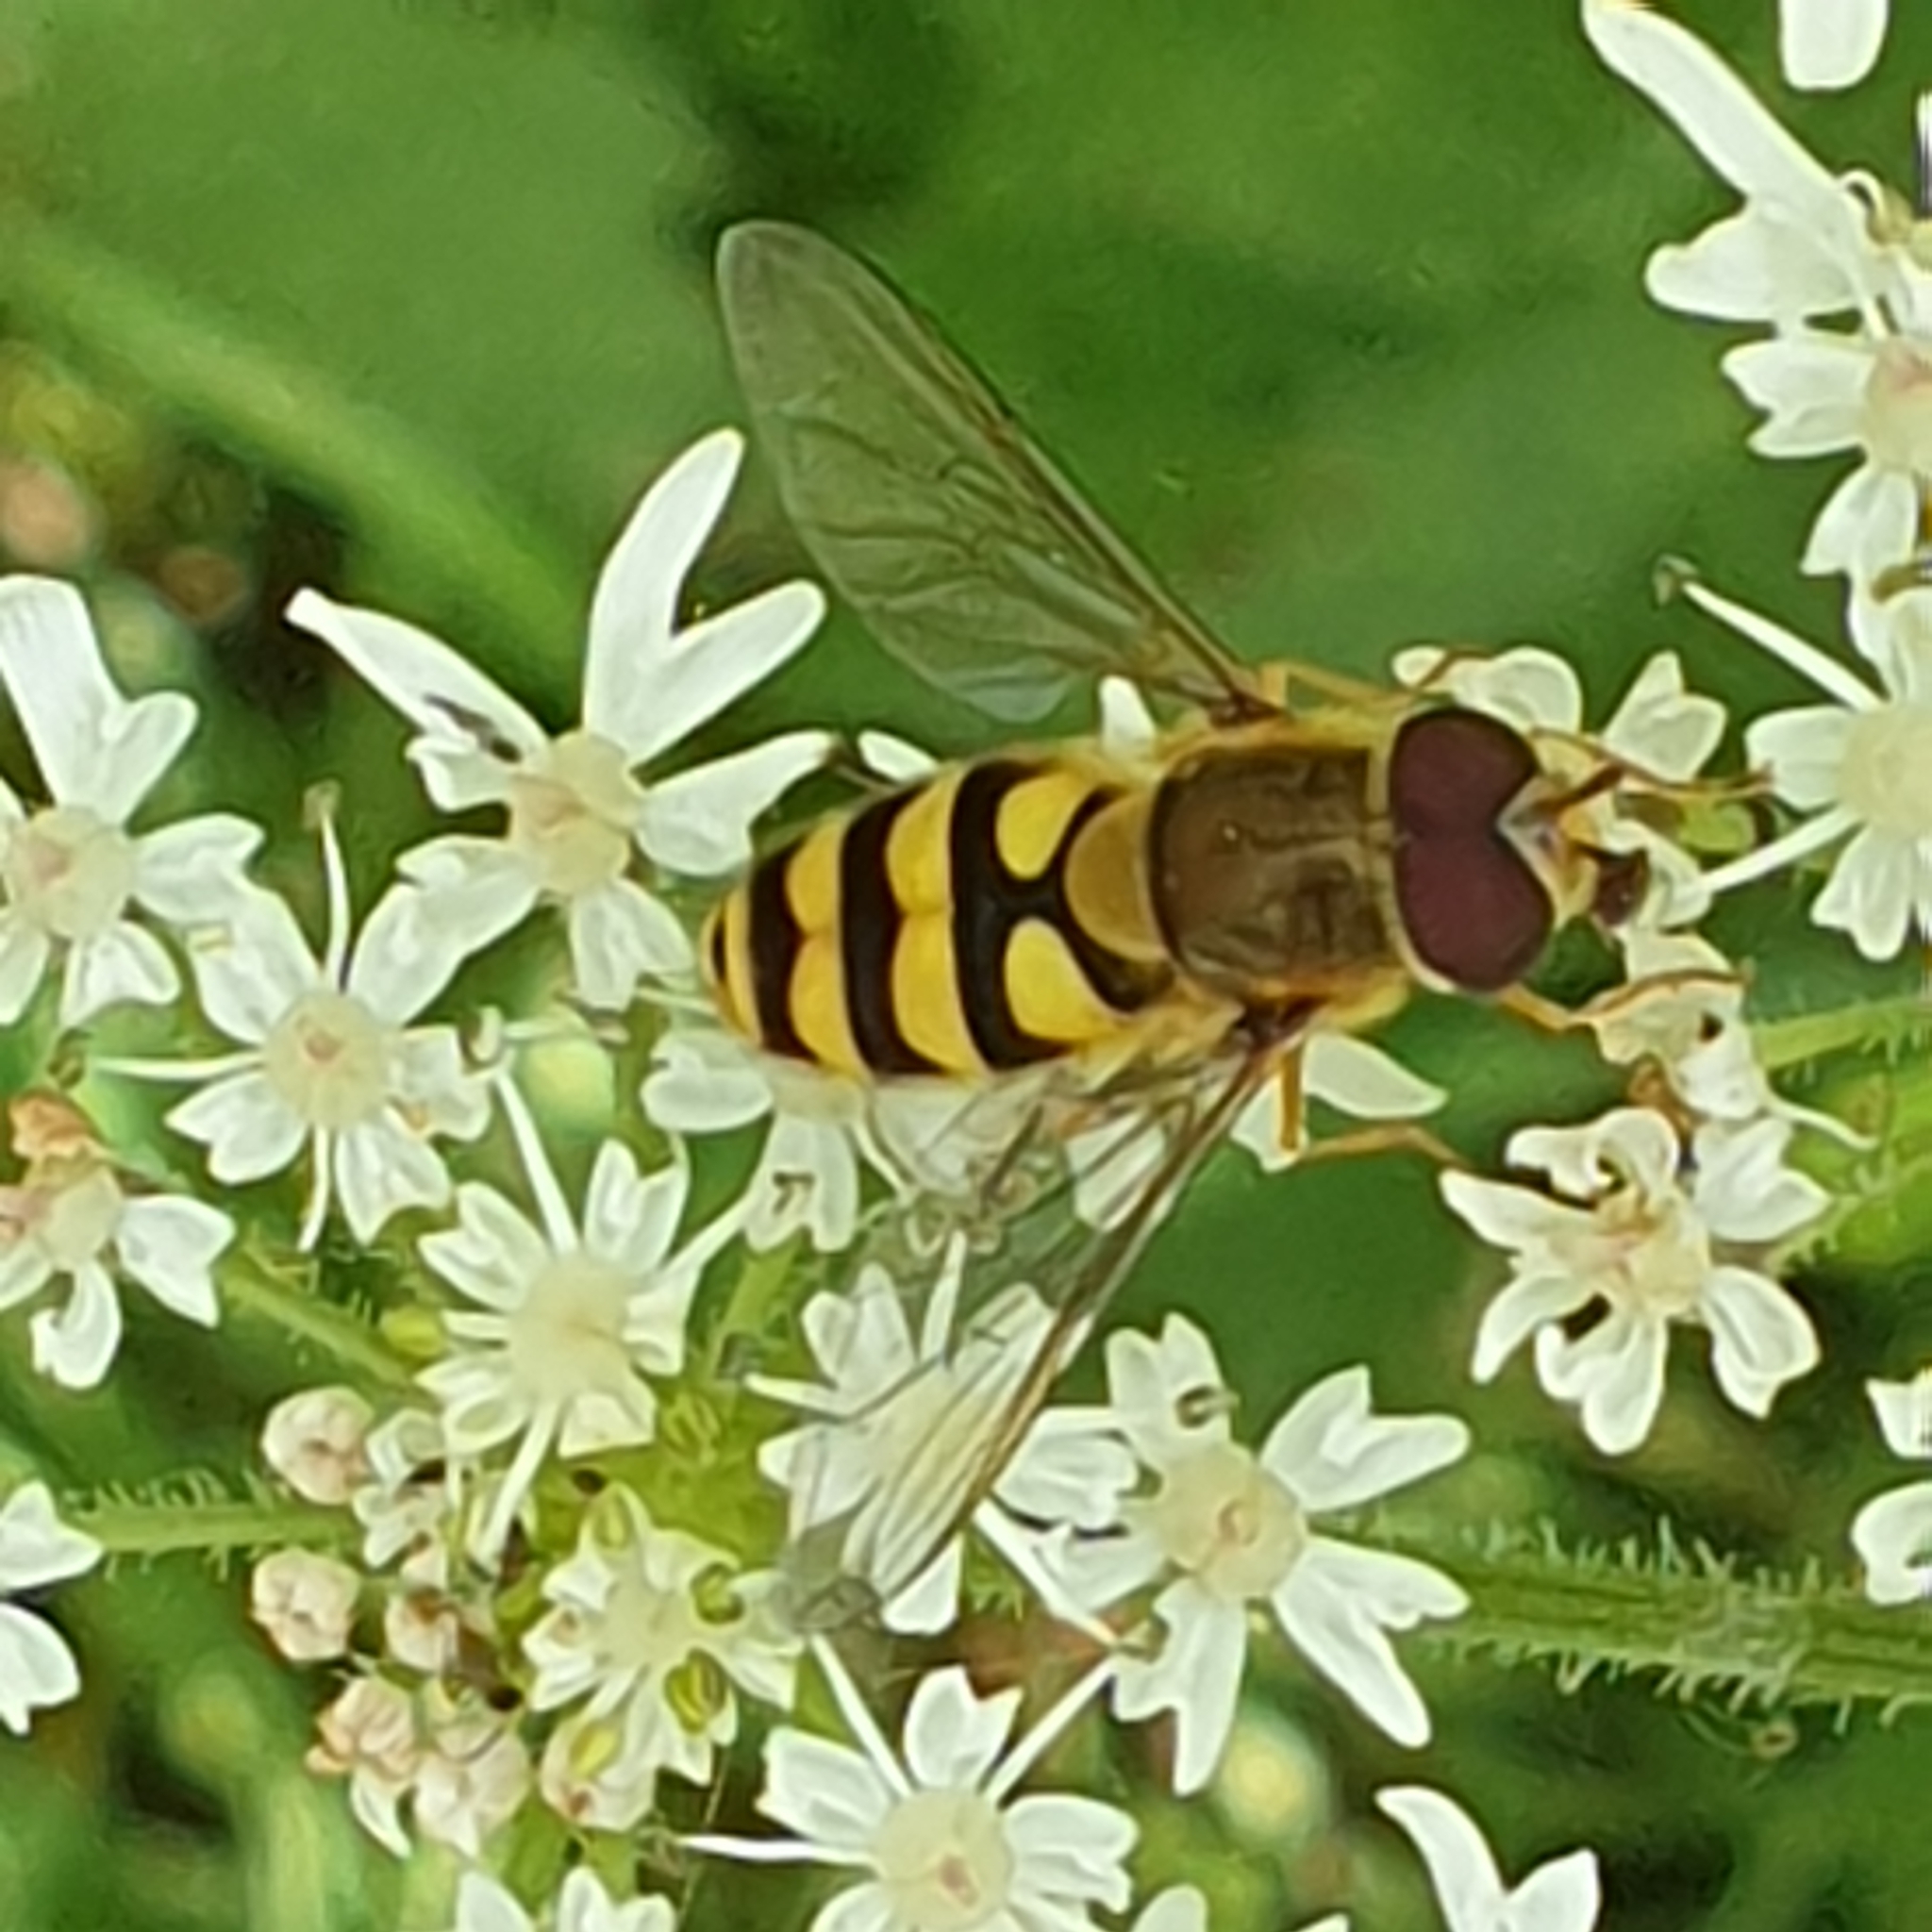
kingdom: Animalia
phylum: Arthropoda
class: Insecta
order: Diptera
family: Syrphidae
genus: Syrphus
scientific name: Syrphus
